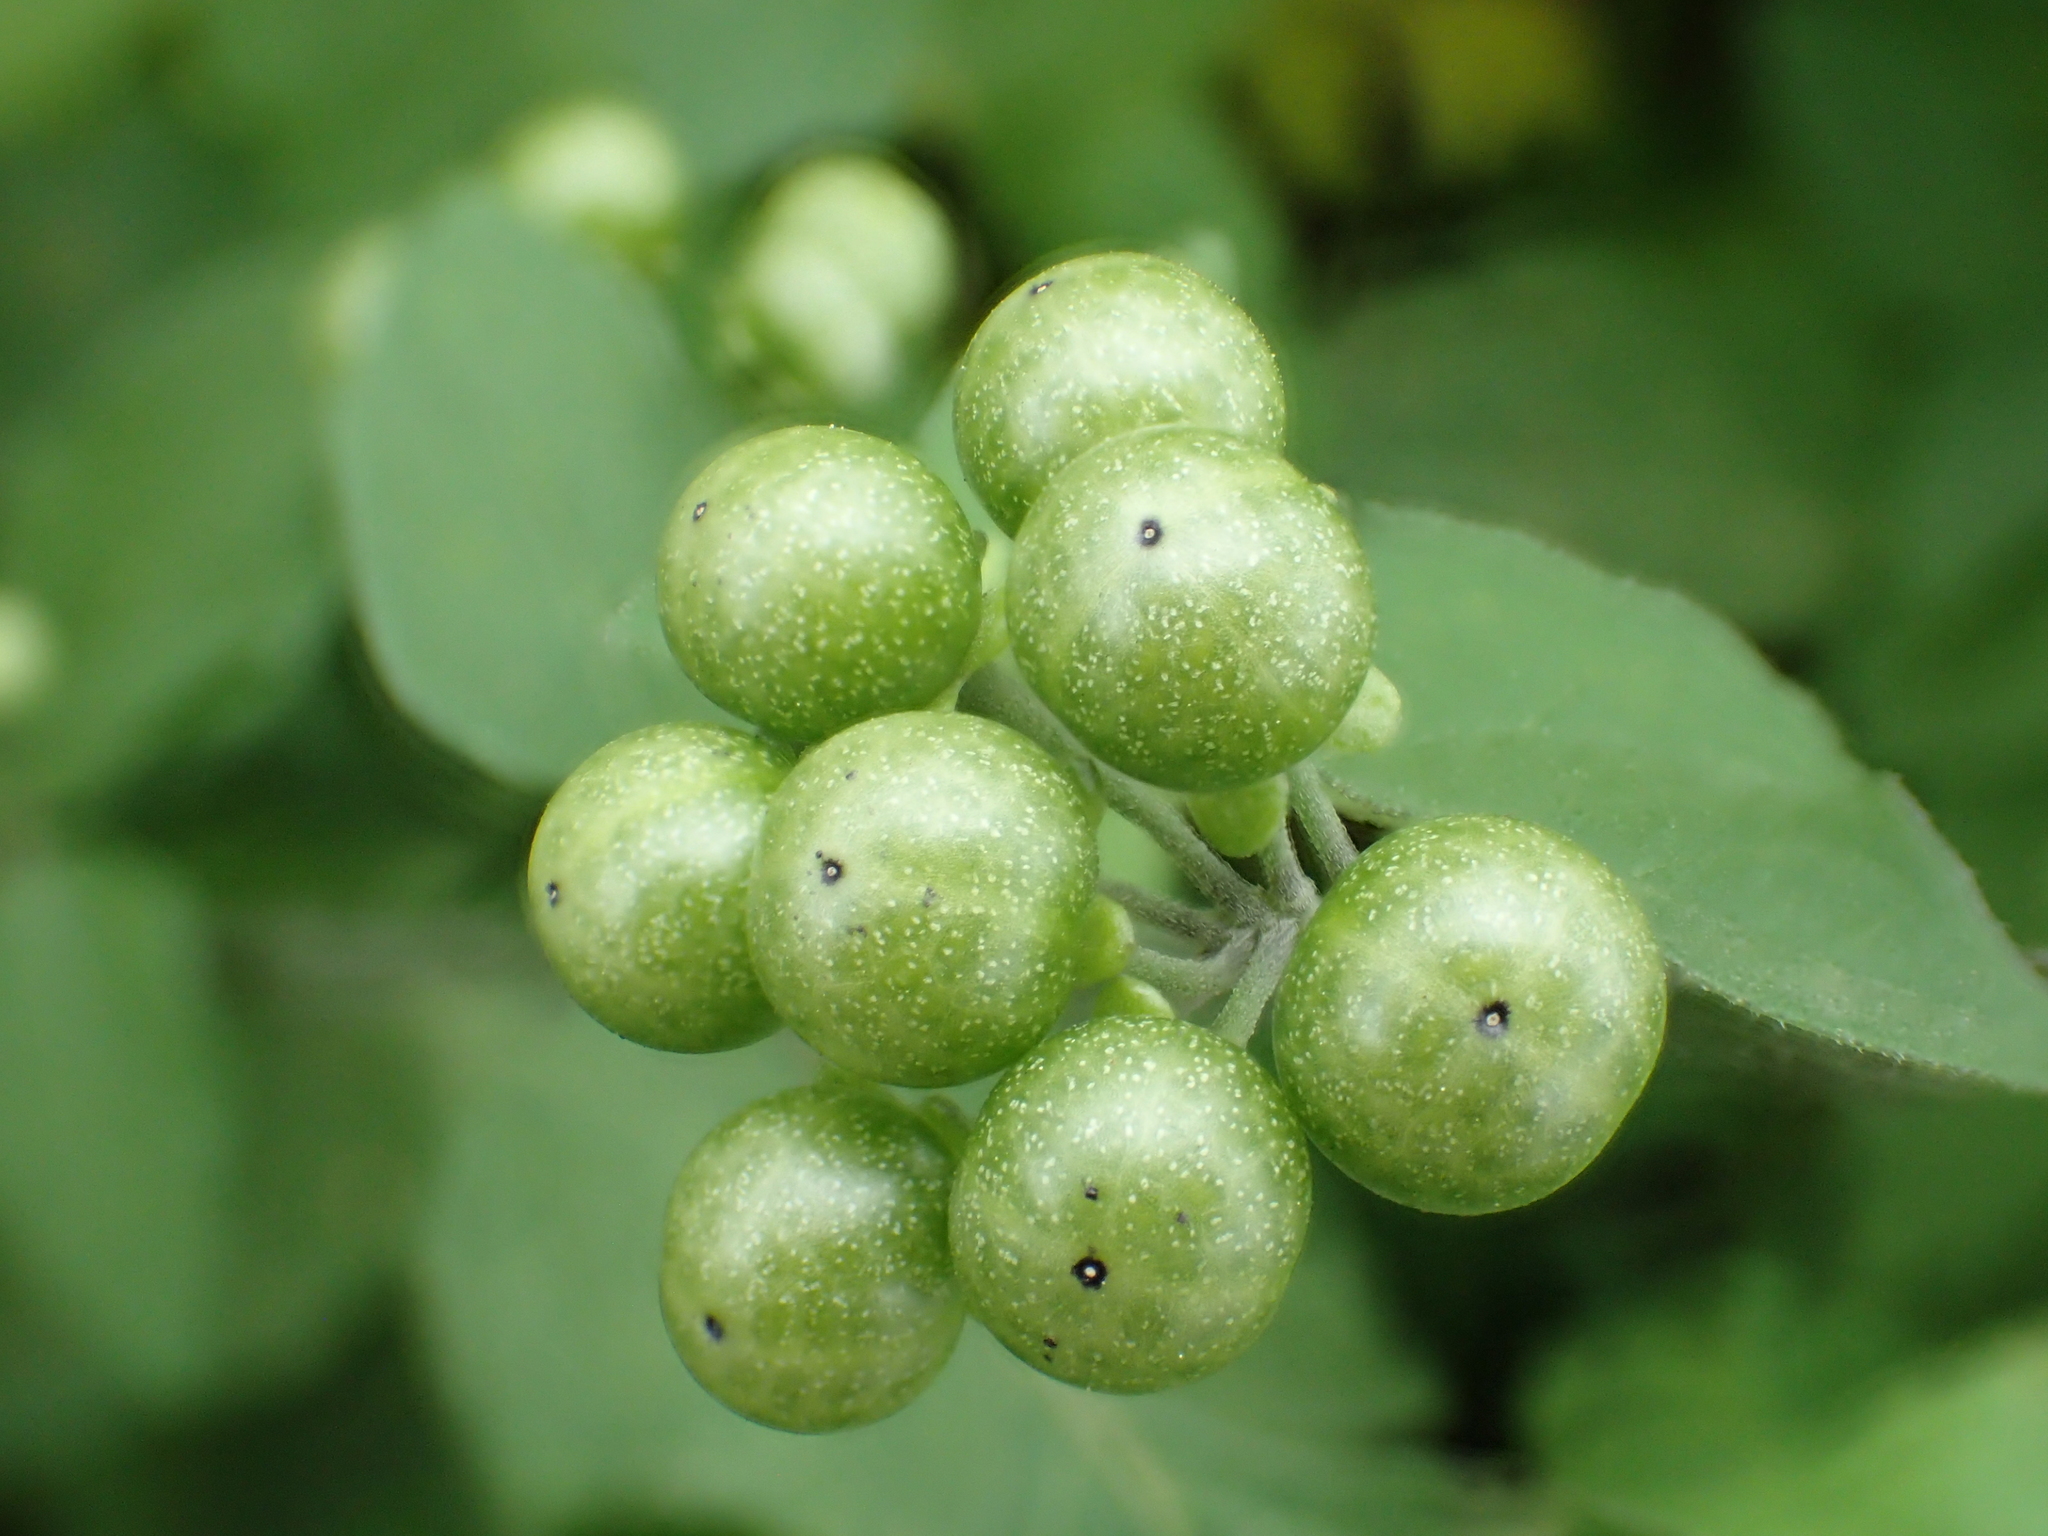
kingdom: Plantae
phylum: Tracheophyta
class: Magnoliopsida
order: Solanales
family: Solanaceae
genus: Solanum
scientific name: Solanum scabrum
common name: Garden-huckleberry
